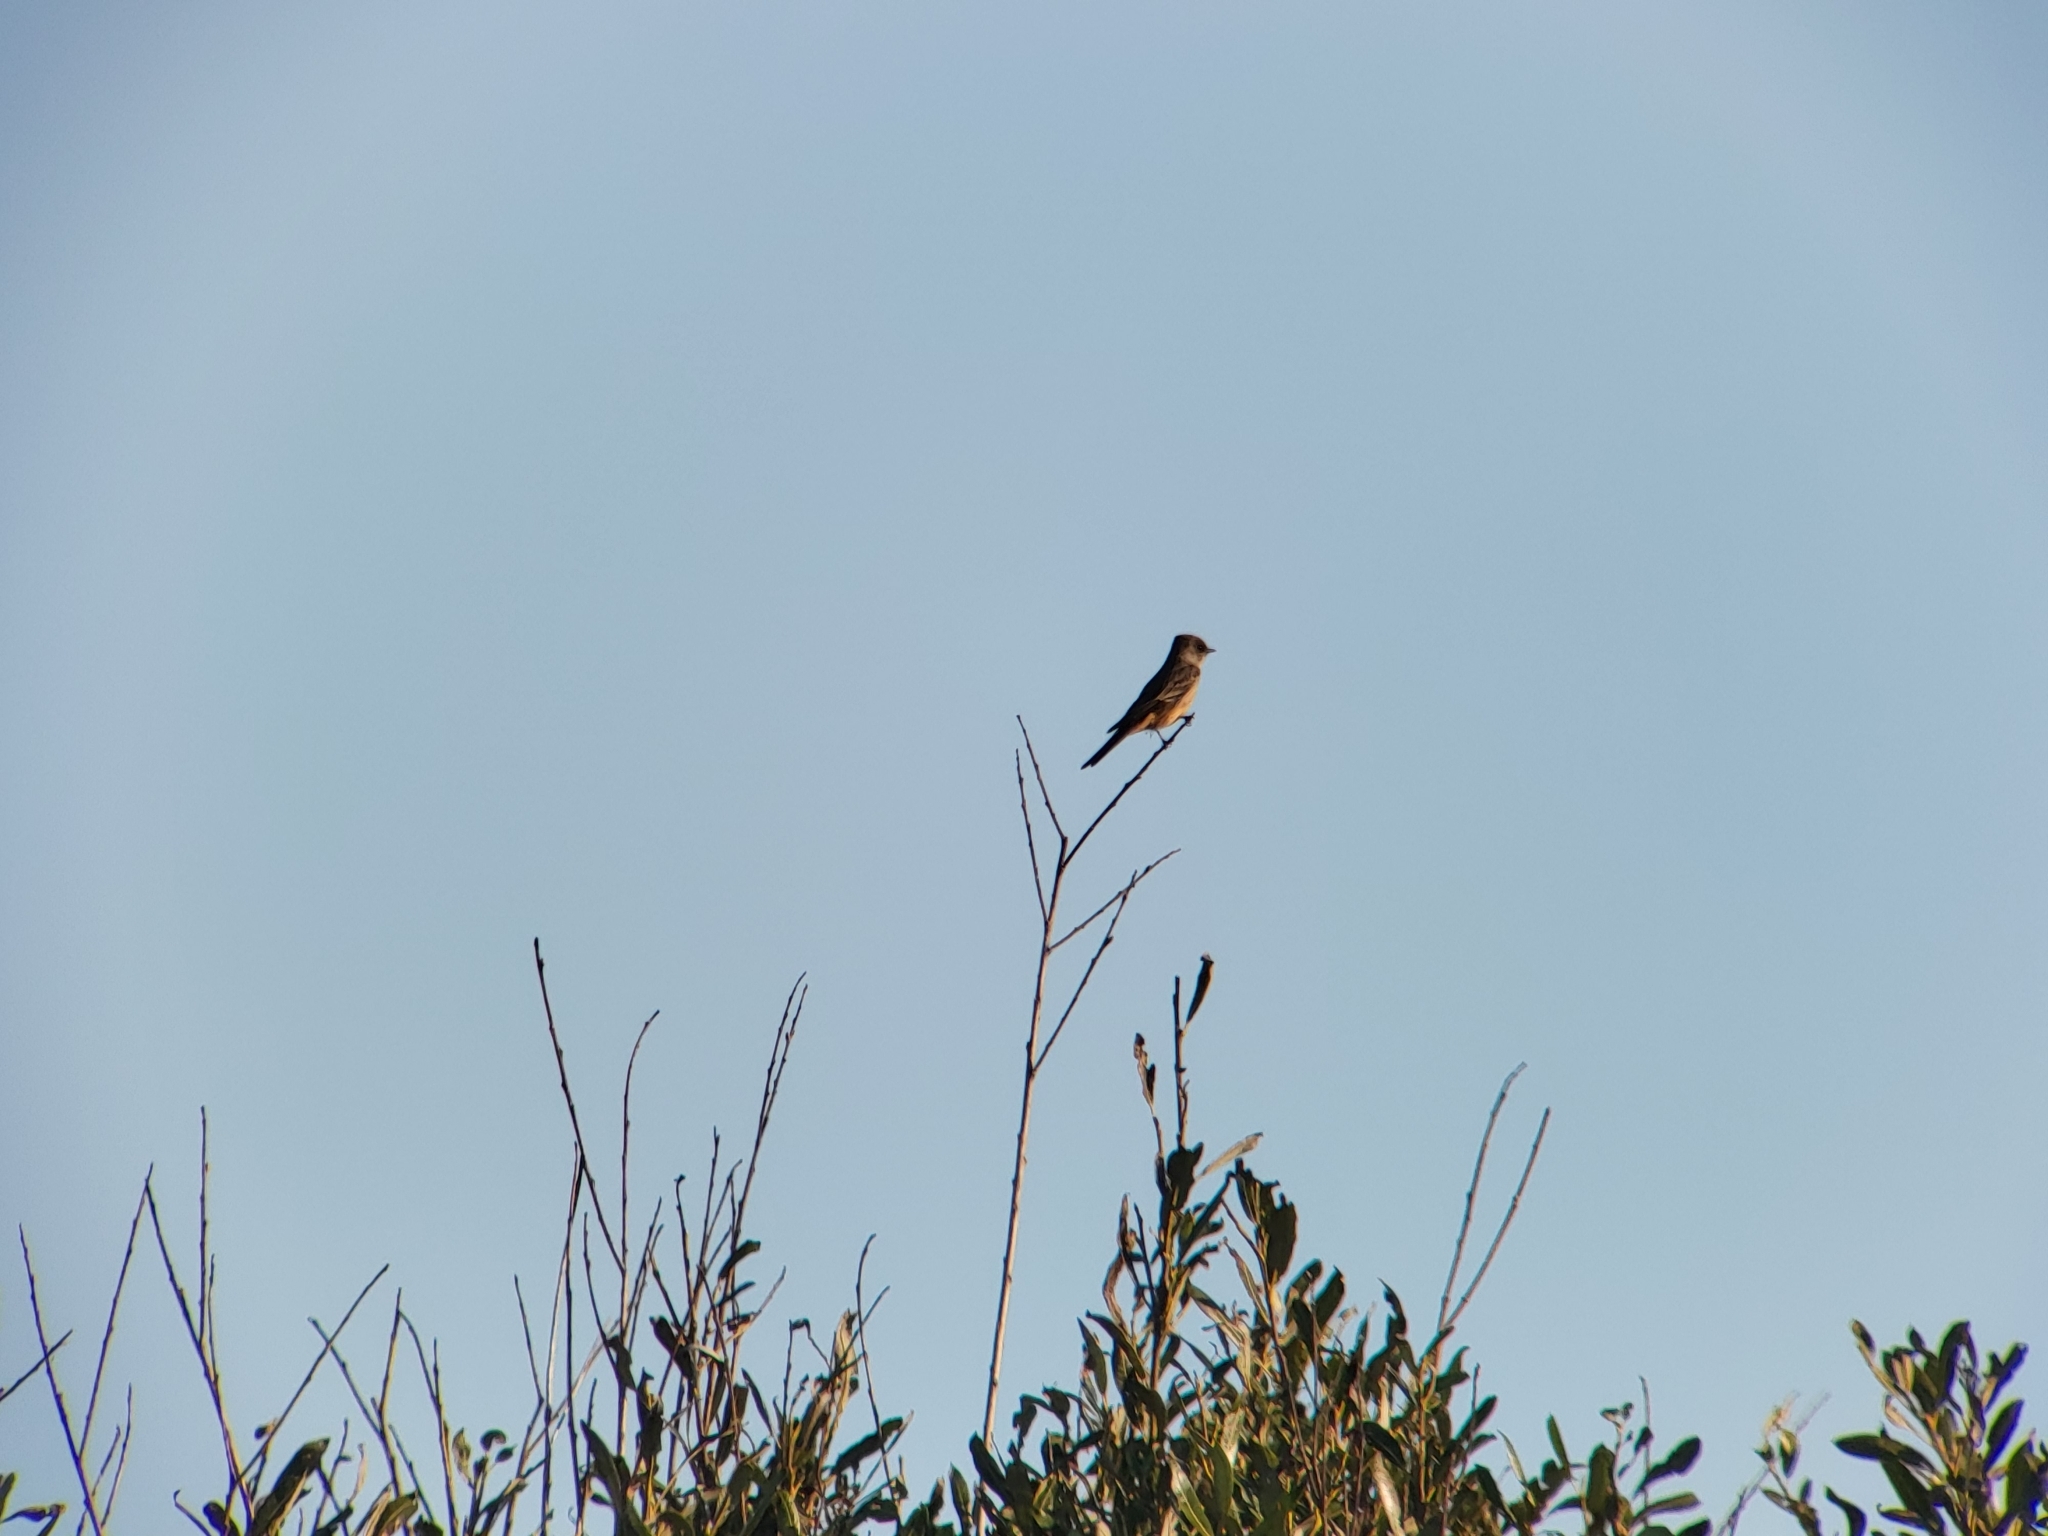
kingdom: Animalia
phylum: Chordata
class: Aves
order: Passeriformes
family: Tyrannidae
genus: Sayornis
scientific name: Sayornis saya
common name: Say's phoebe
